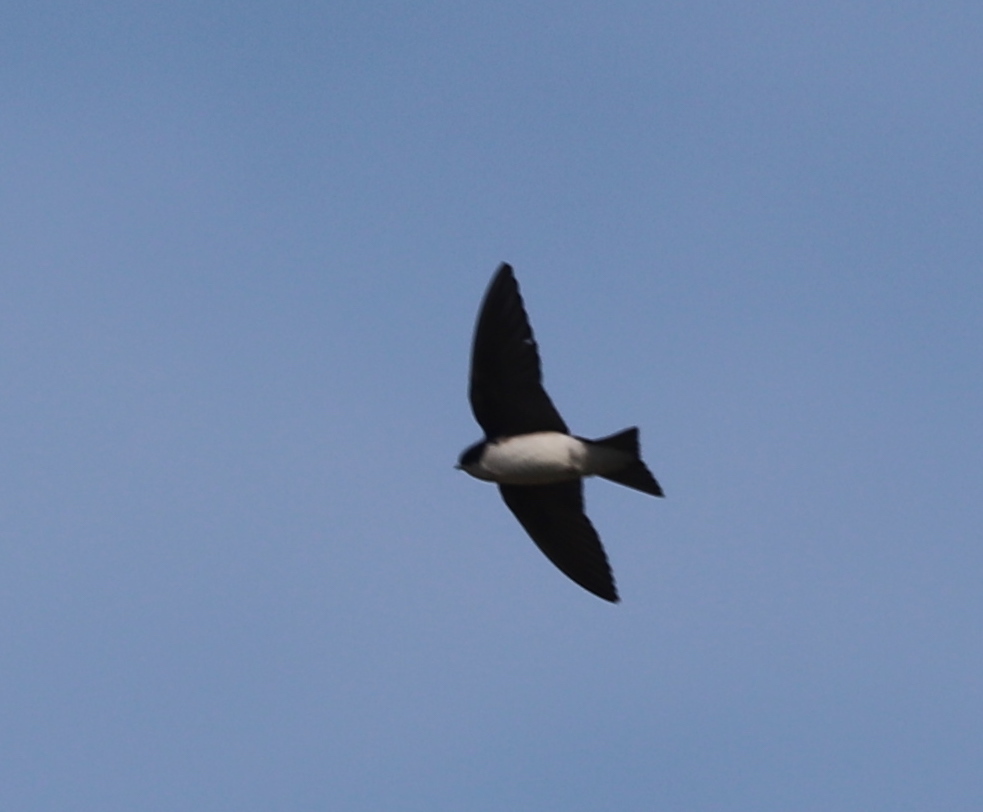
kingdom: Animalia
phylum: Chordata
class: Aves
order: Passeriformes
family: Hirundinidae
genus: Tachycineta
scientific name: Tachycineta bicolor
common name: Tree swallow
